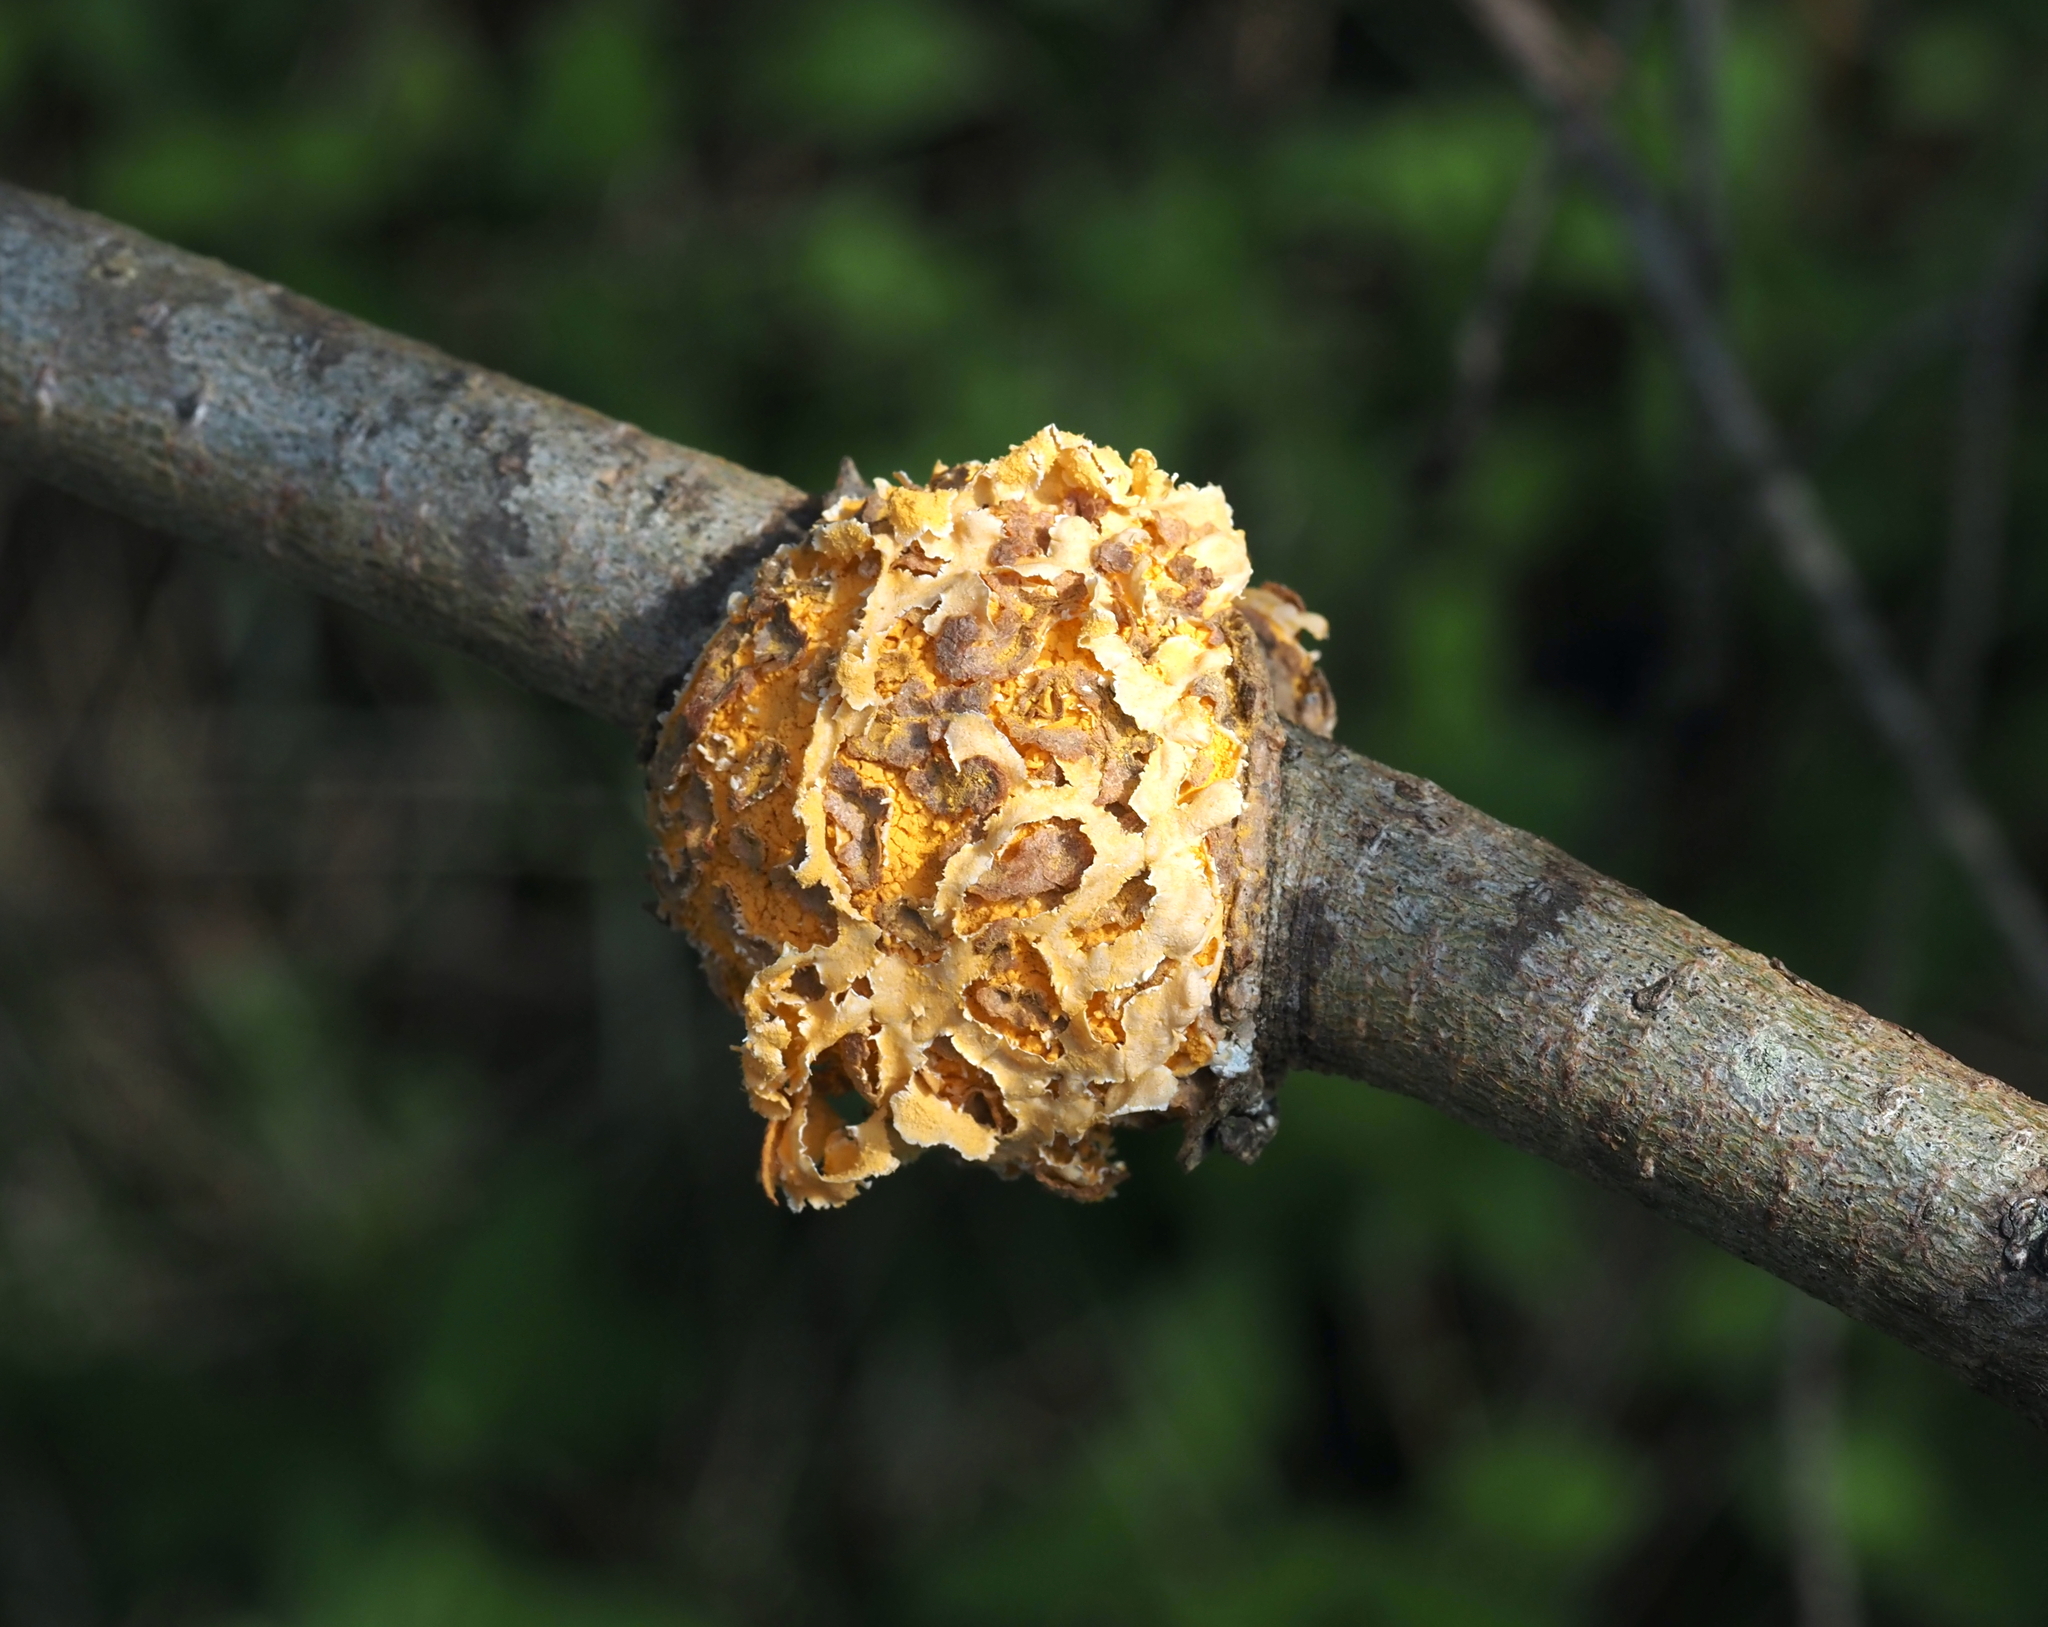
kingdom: Fungi
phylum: Basidiomycota
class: Pucciniomycetes
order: Pucciniales
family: Cronartiaceae
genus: Cronartium
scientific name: Cronartium quercuum
